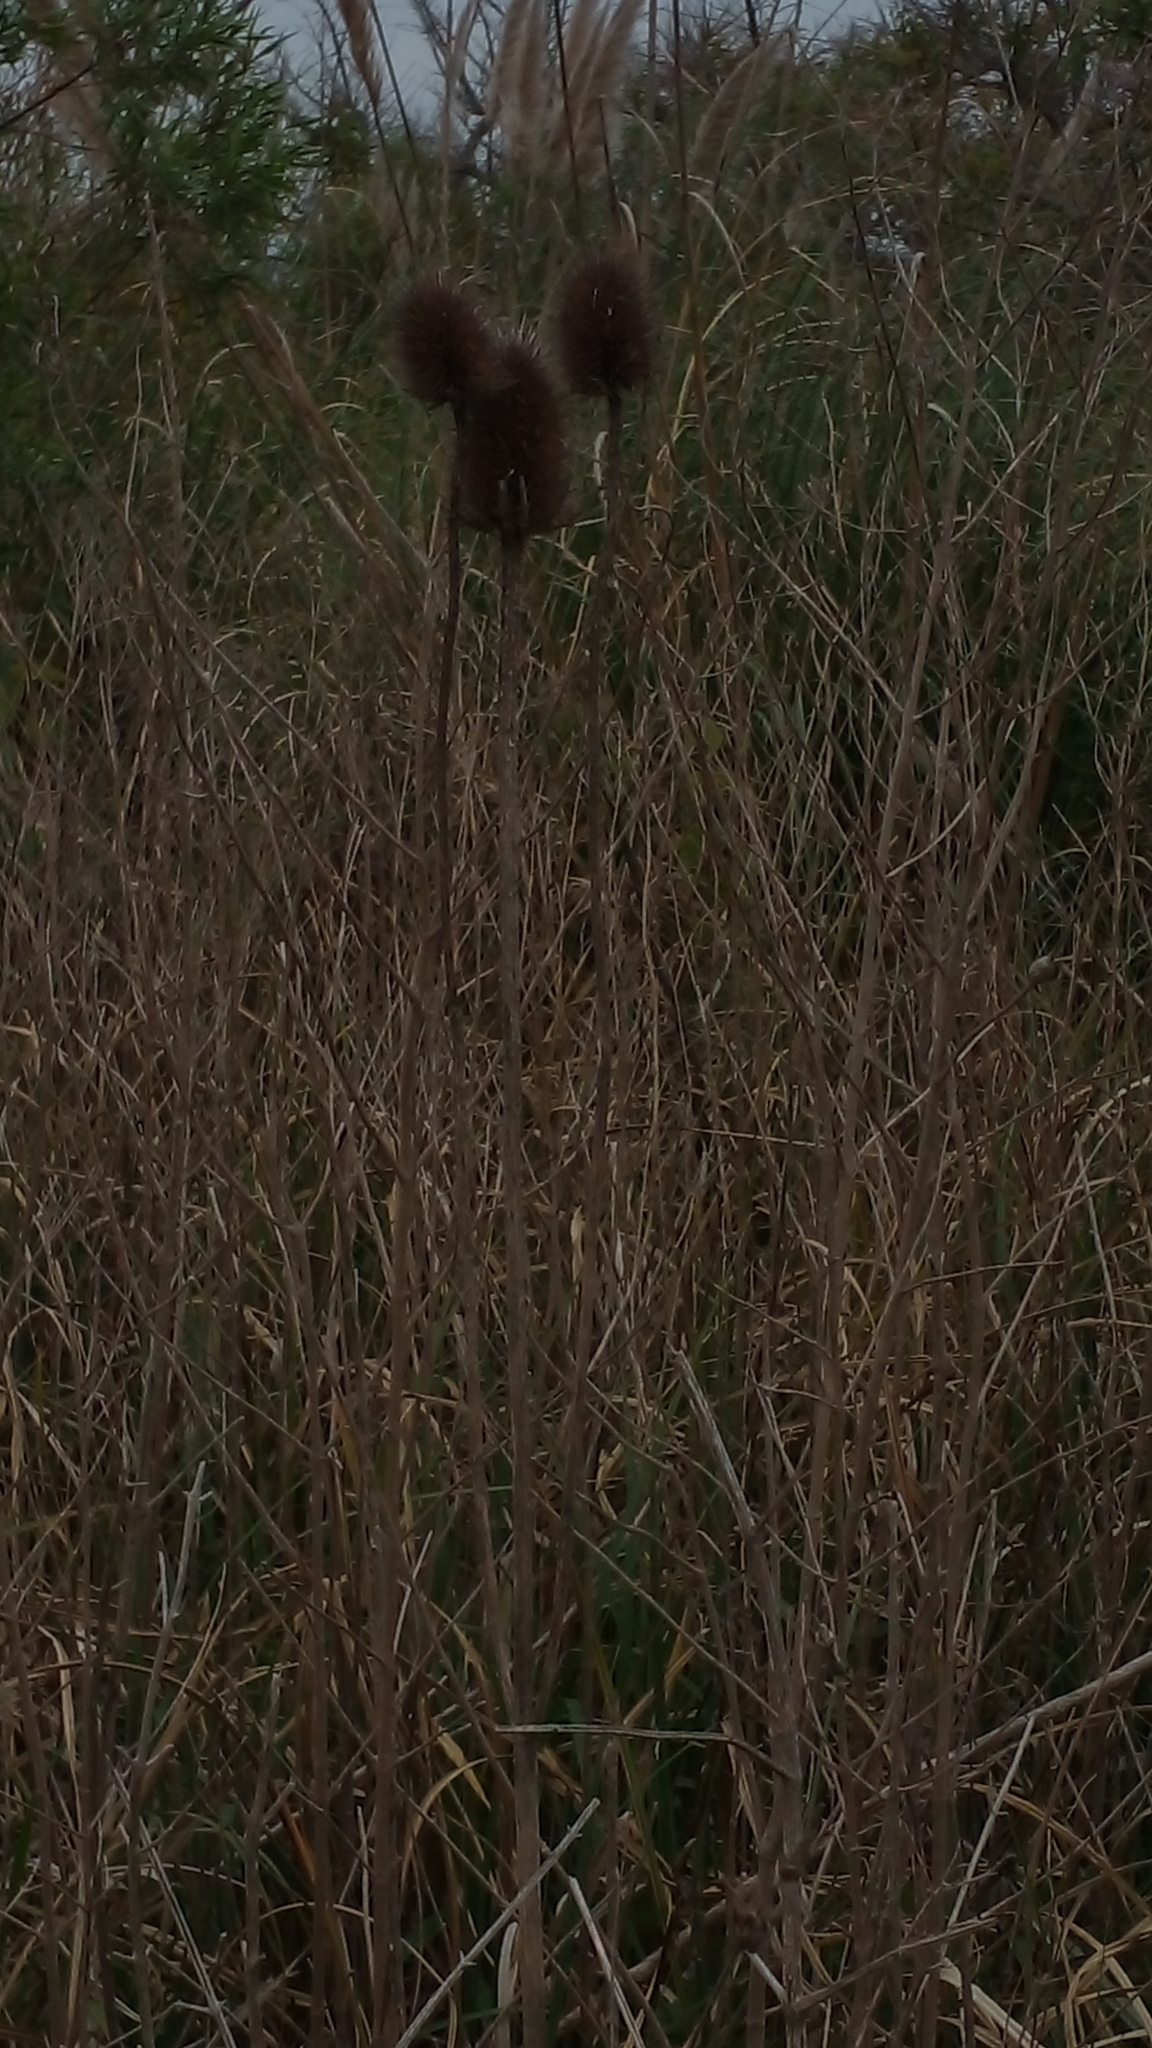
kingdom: Plantae
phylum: Tracheophyta
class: Magnoliopsida
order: Dipsacales
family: Caprifoliaceae
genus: Dipsacus
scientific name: Dipsacus fullonum
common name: Teasel
